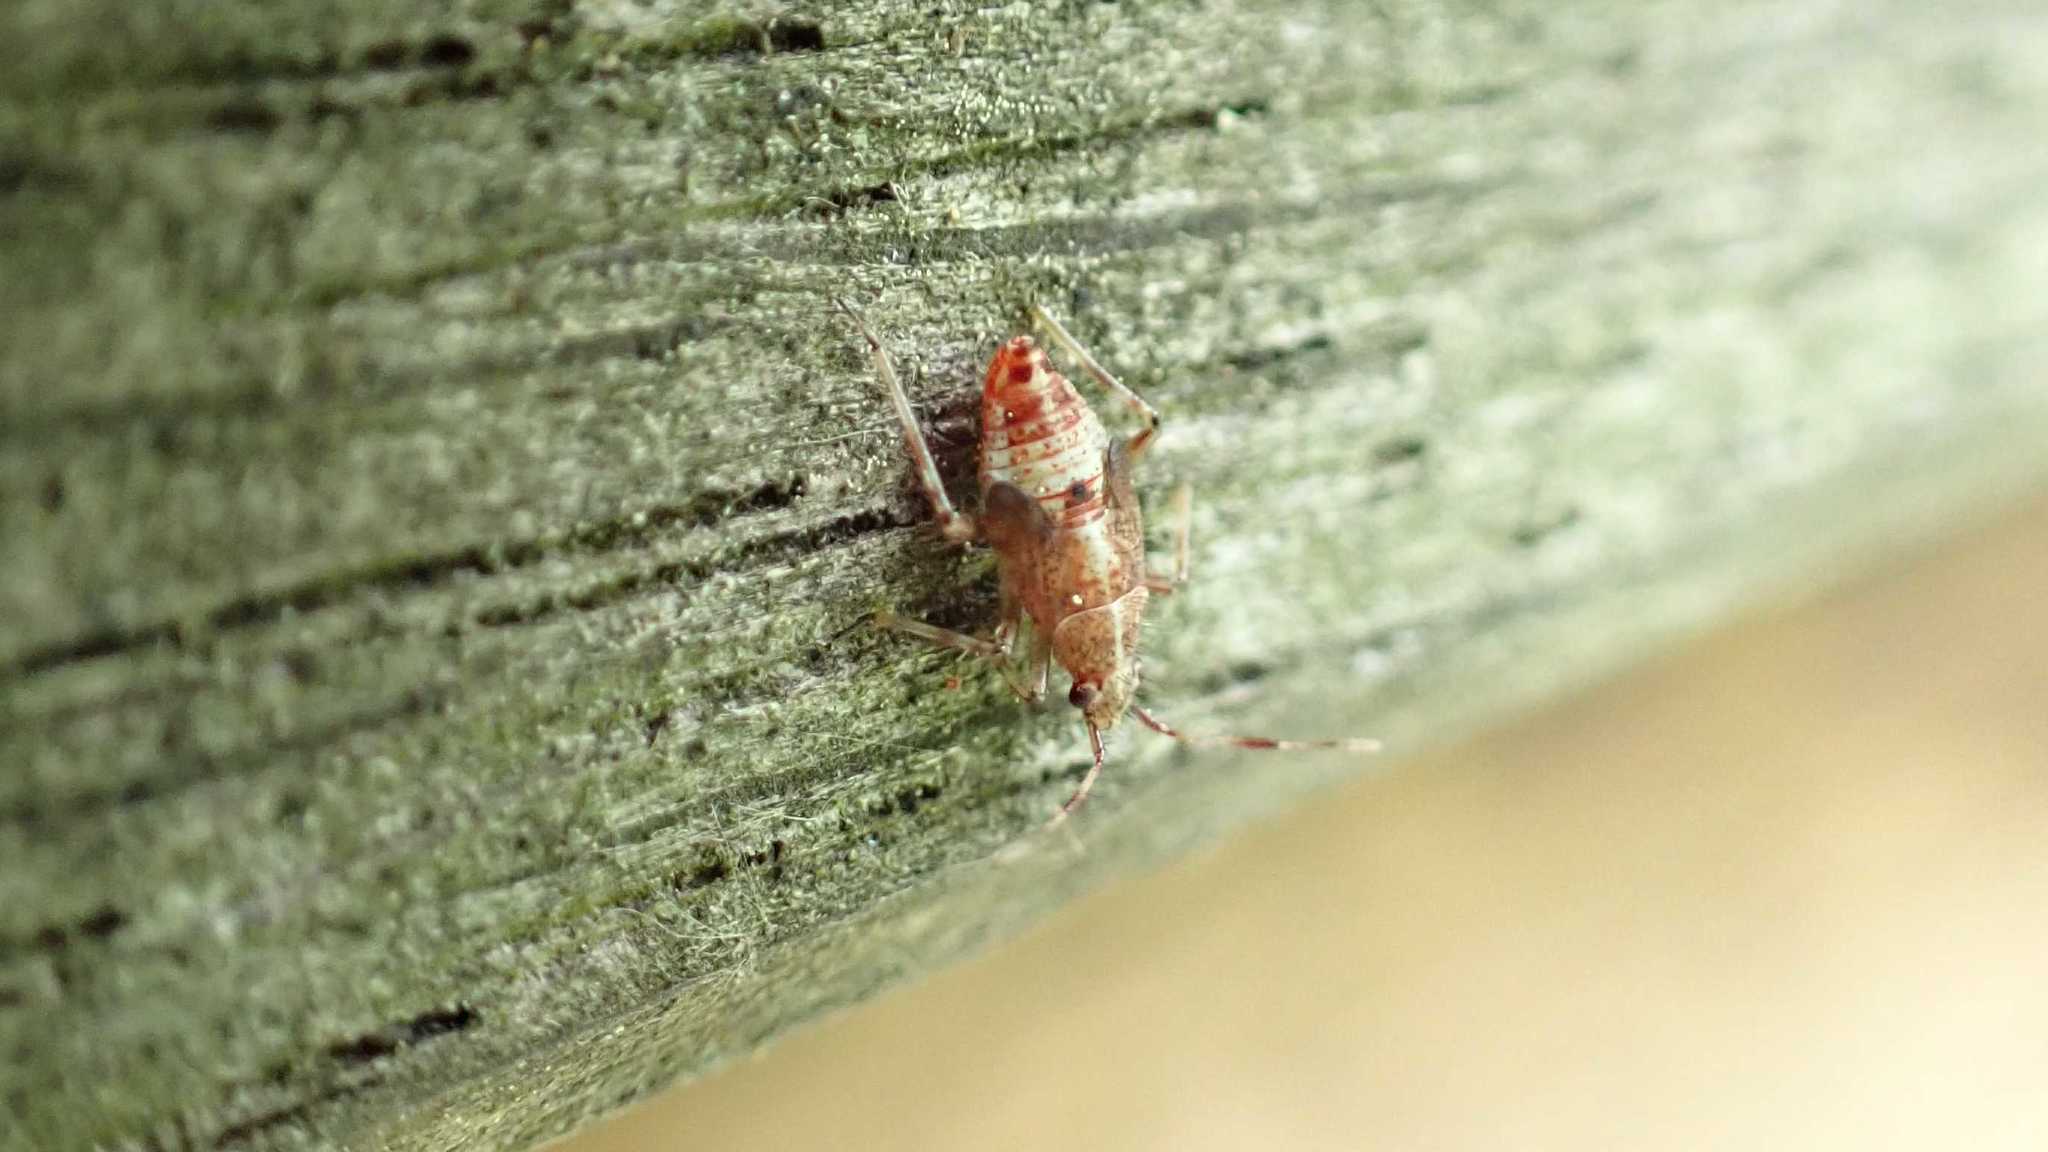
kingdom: Animalia
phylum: Arthropoda
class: Insecta
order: Hemiptera
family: Miridae
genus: Deraeocoris
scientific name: Deraeocoris flavilinea
